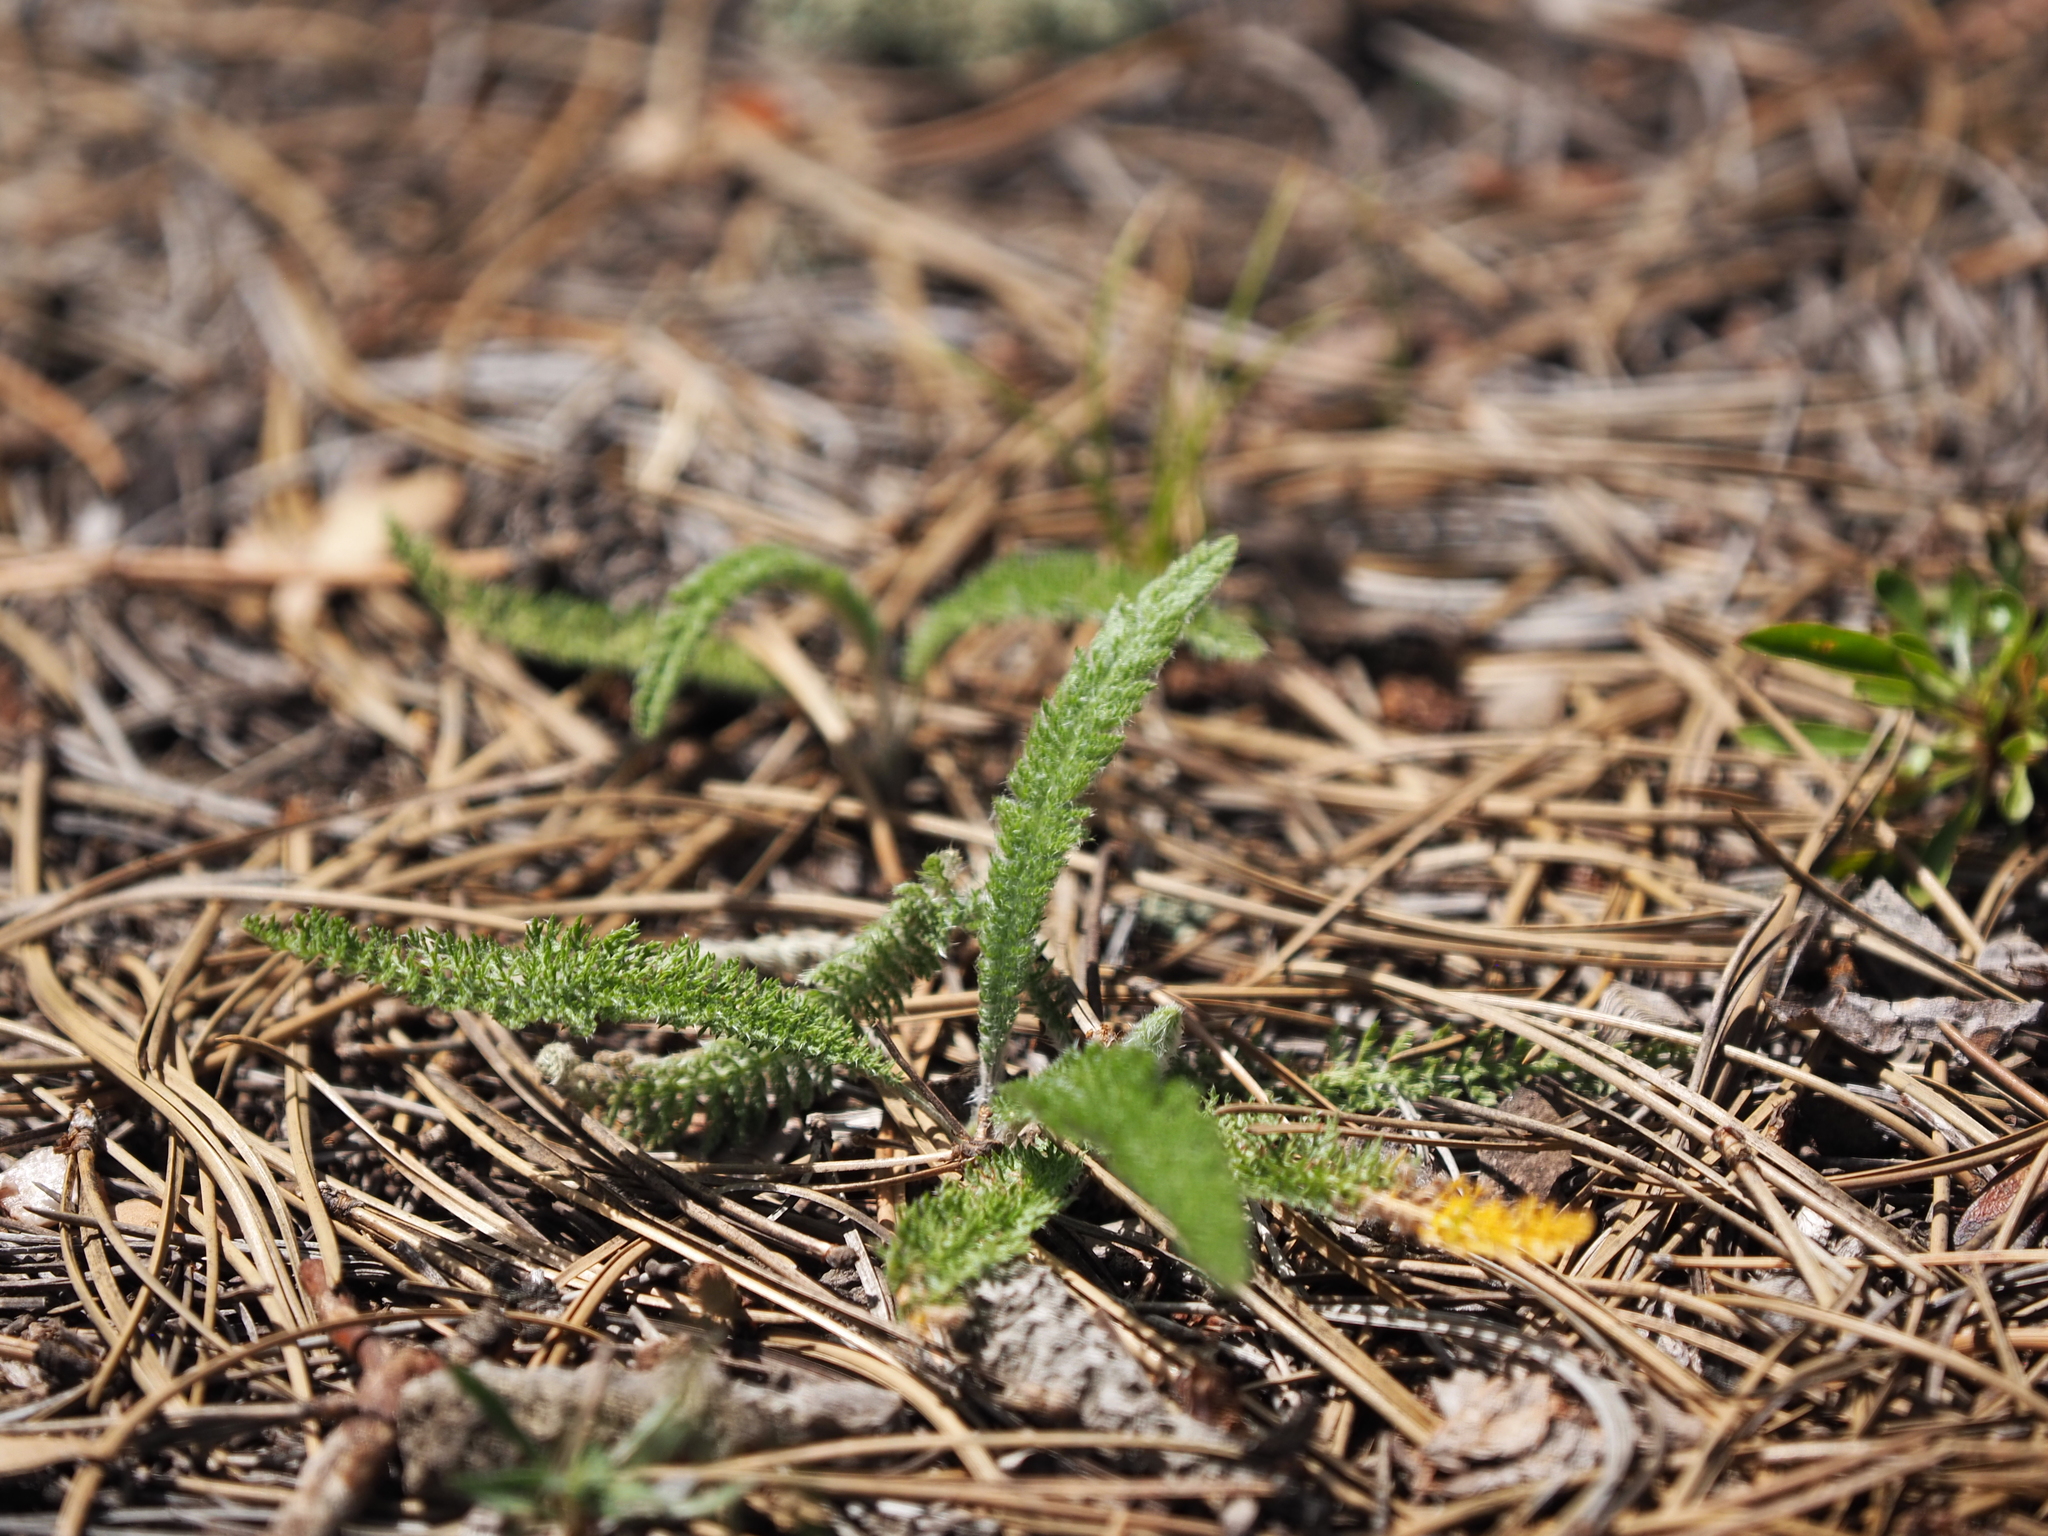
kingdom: Plantae
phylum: Tracheophyta
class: Magnoliopsida
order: Asterales
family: Asteraceae
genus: Achillea
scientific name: Achillea millefolium
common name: Yarrow
